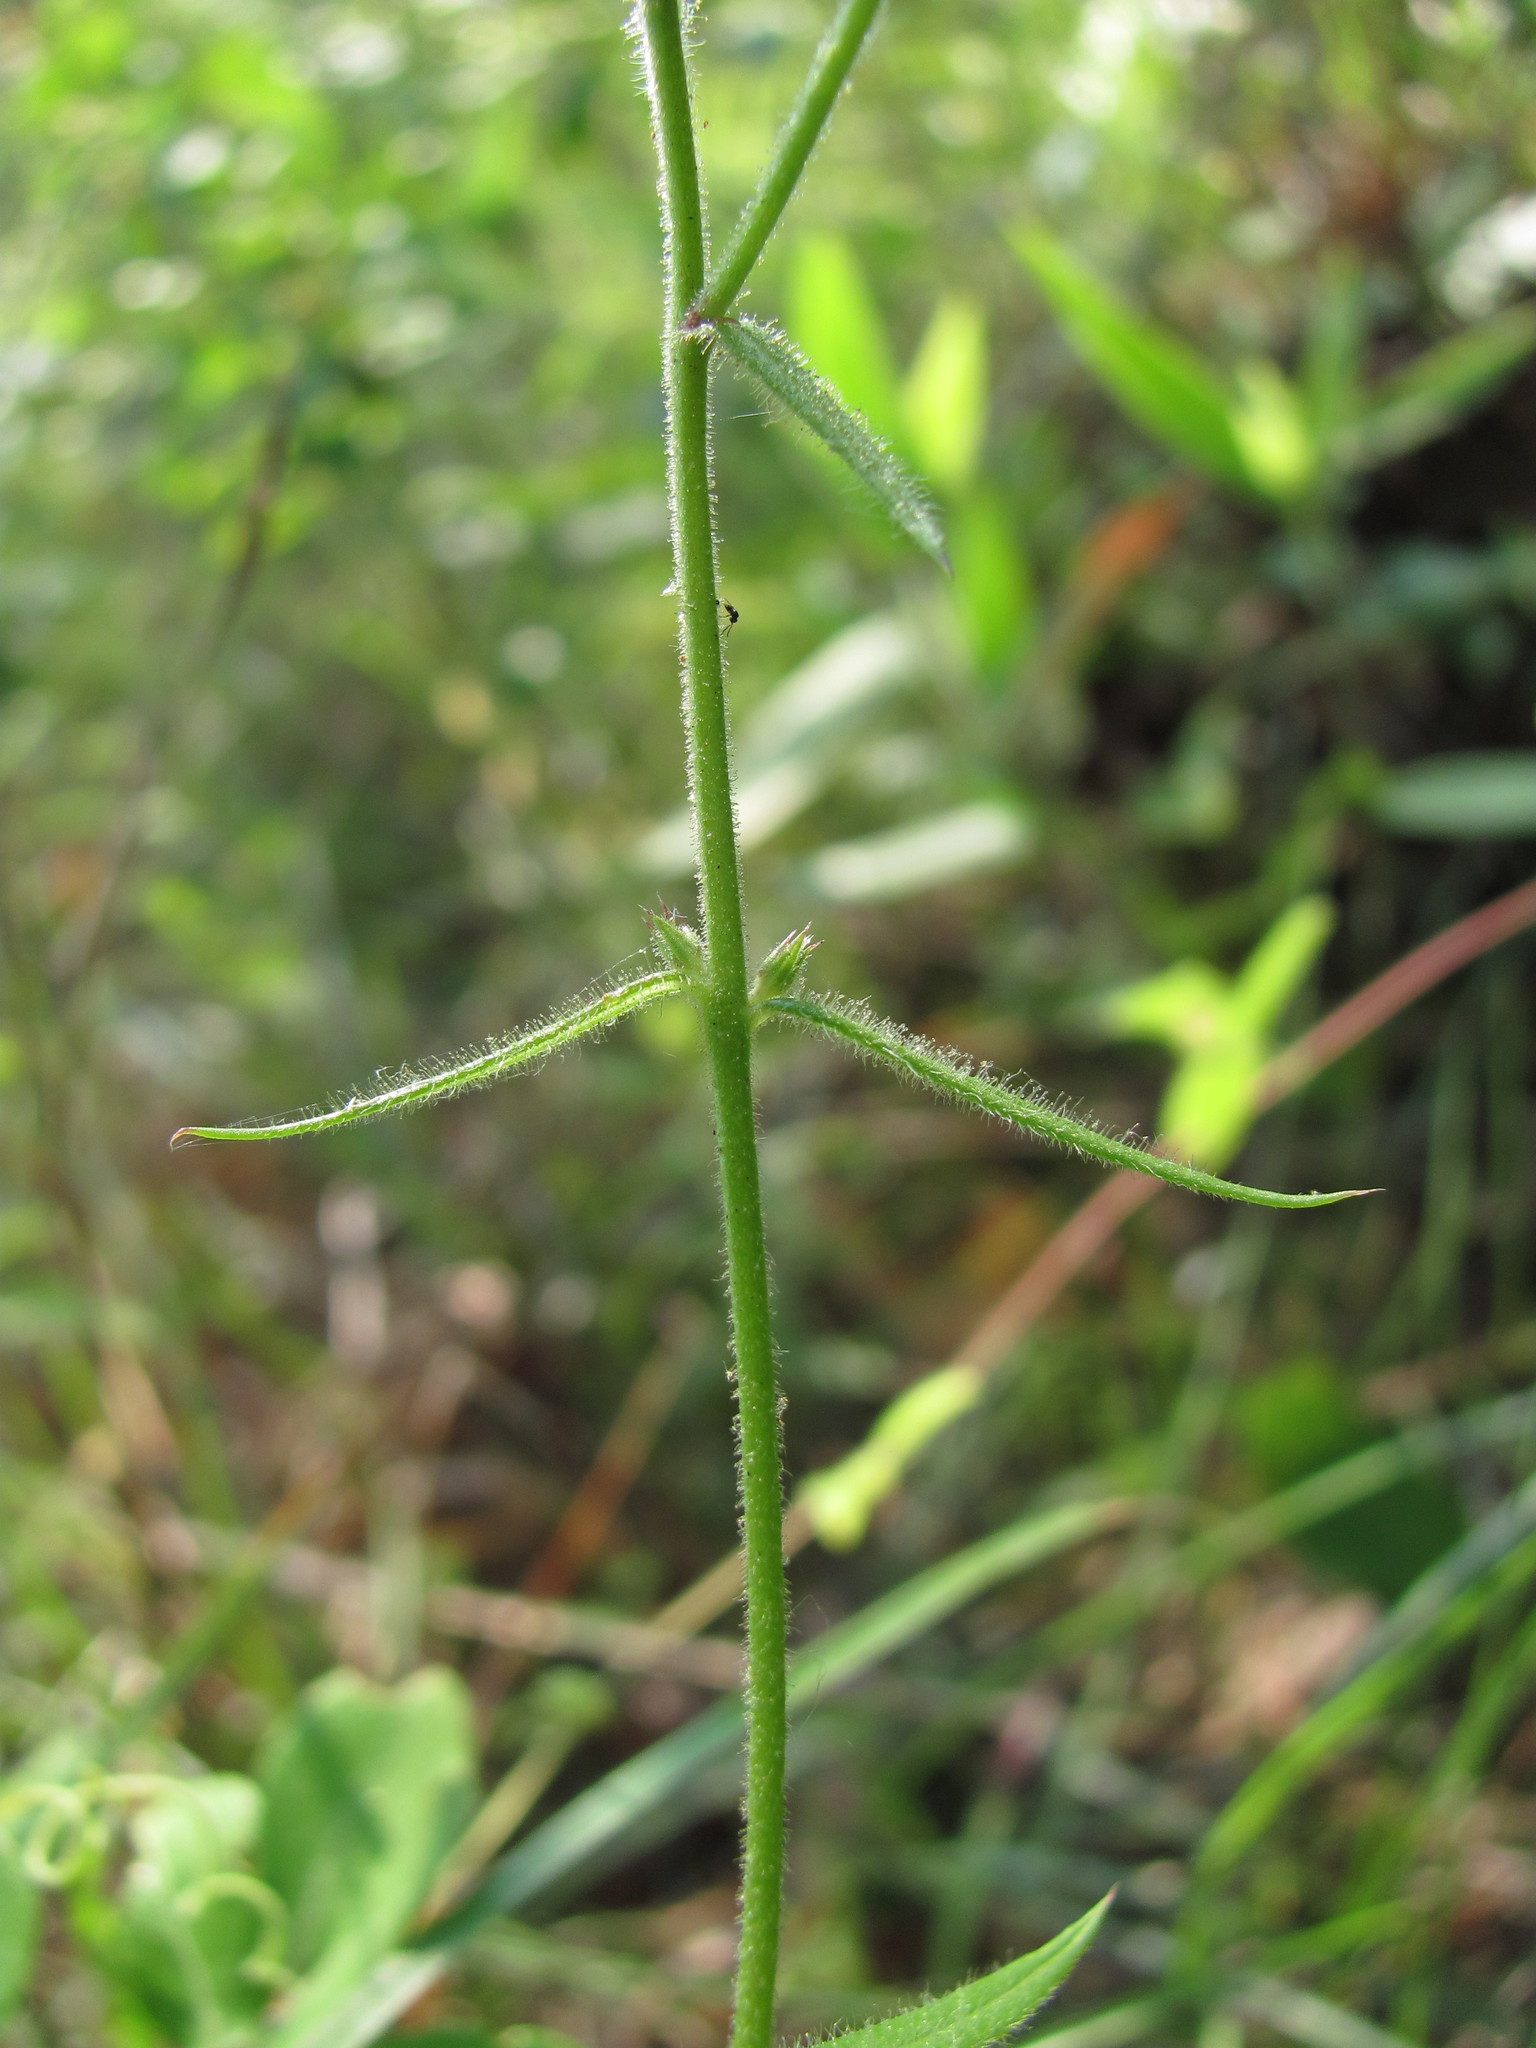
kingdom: Plantae
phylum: Tracheophyta
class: Magnoliopsida
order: Ericales
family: Polemoniaceae
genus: Phlox
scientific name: Phlox pilosa
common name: Prairie phlox
